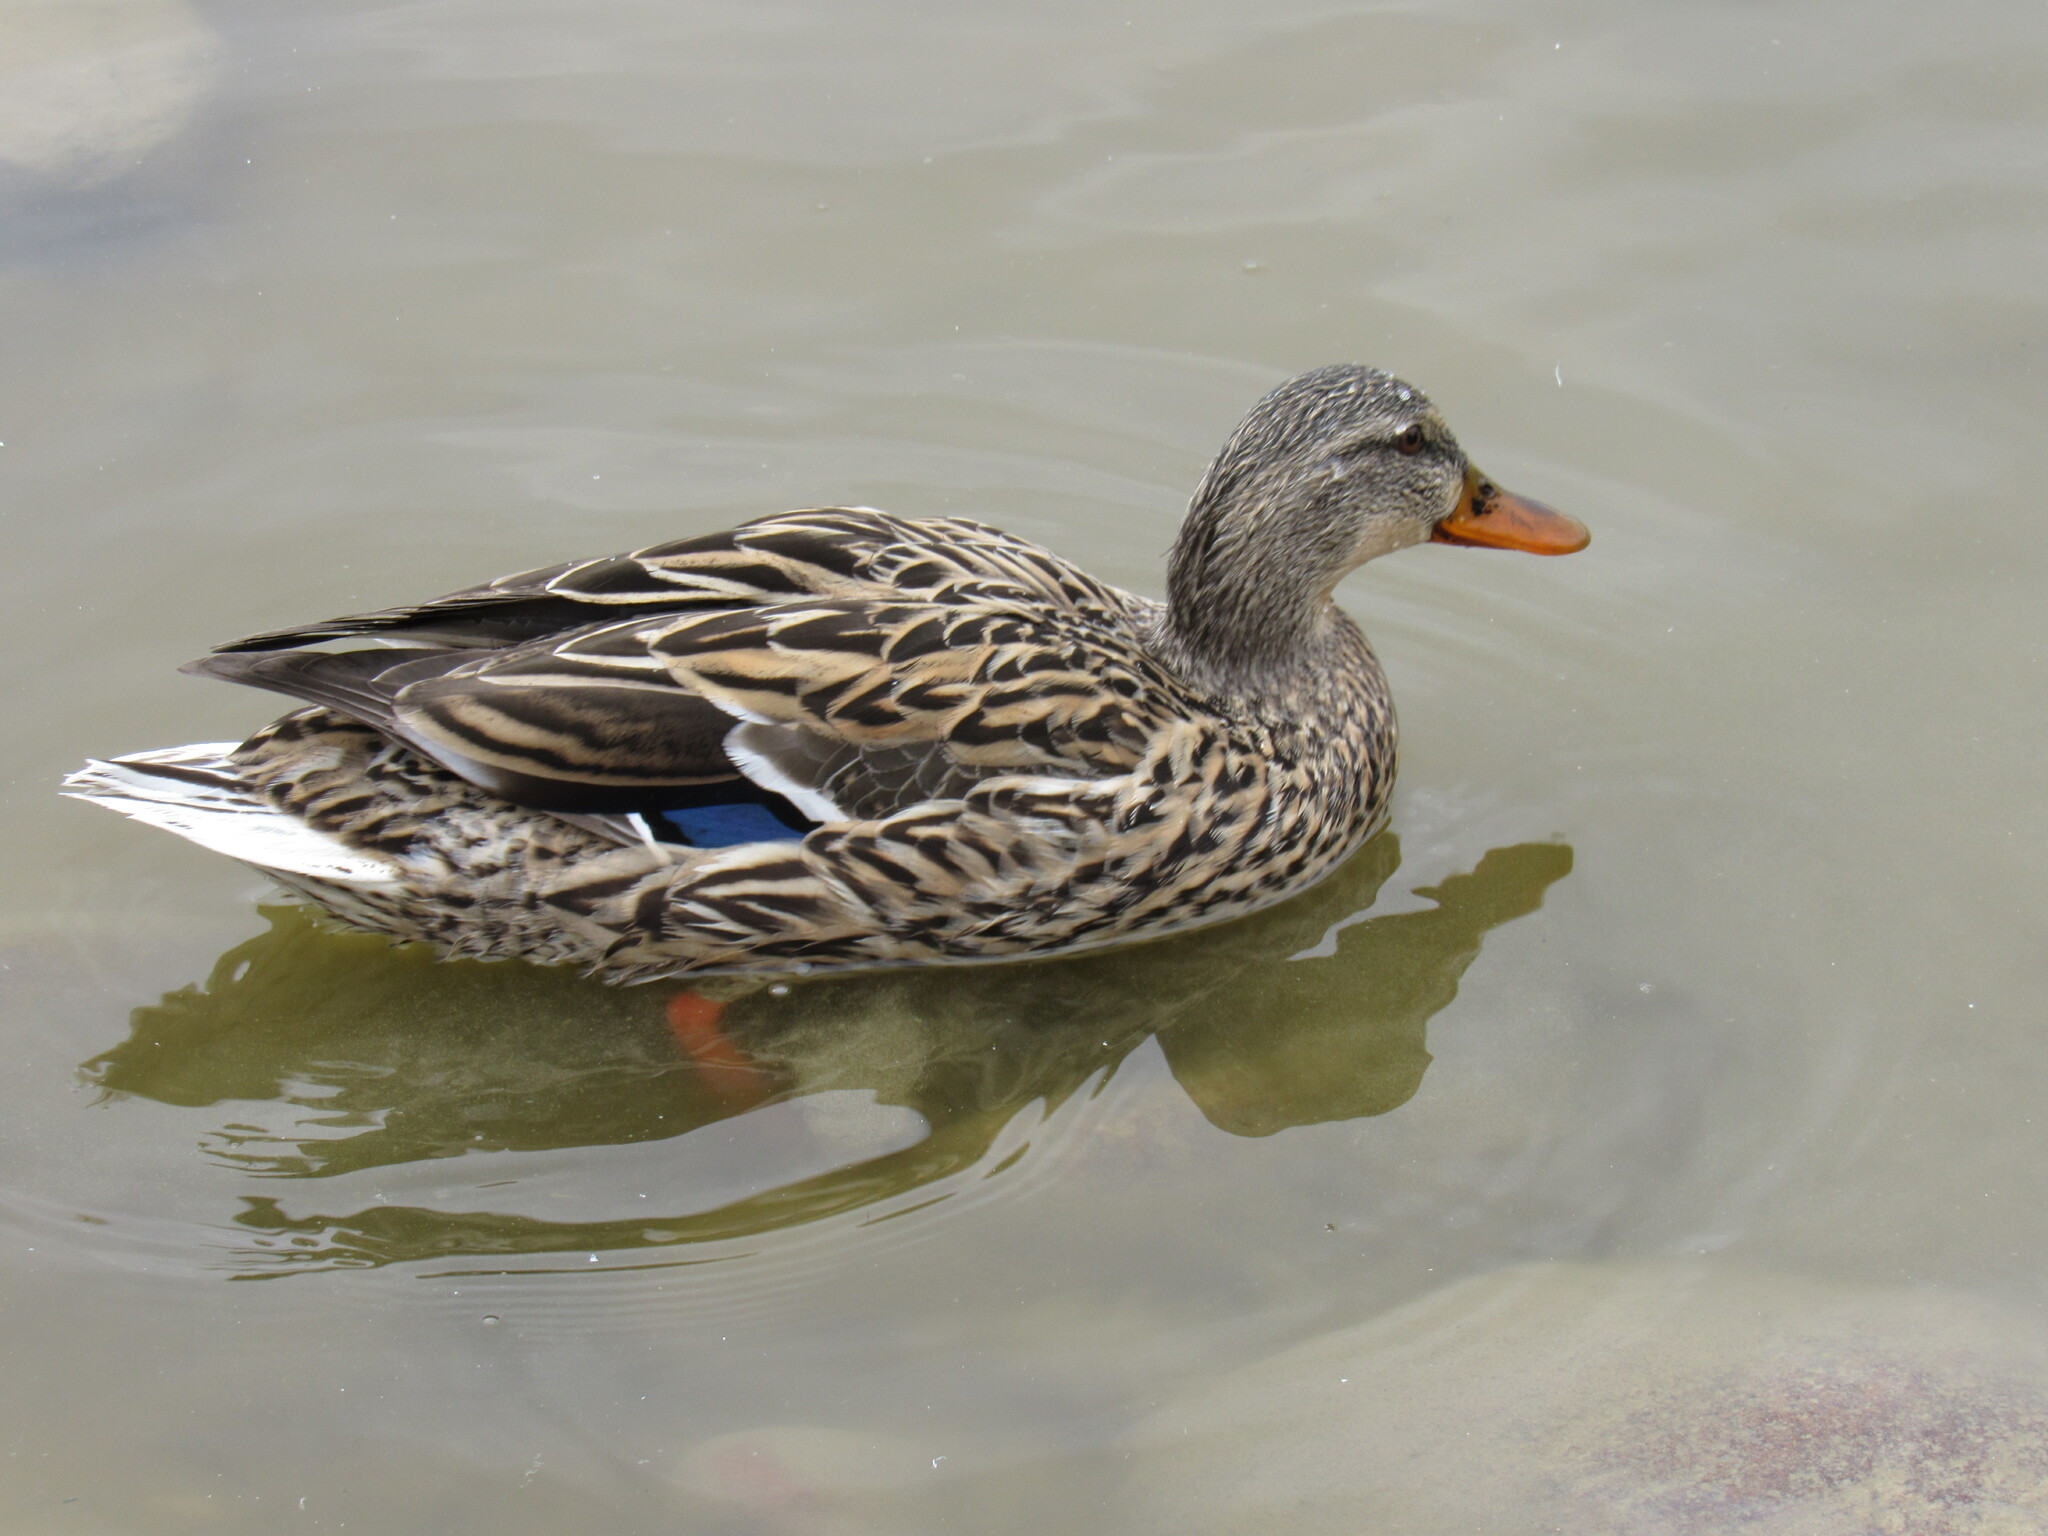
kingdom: Animalia
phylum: Chordata
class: Aves
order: Anseriformes
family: Anatidae
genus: Anas
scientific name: Anas platyrhynchos
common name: Mallard
